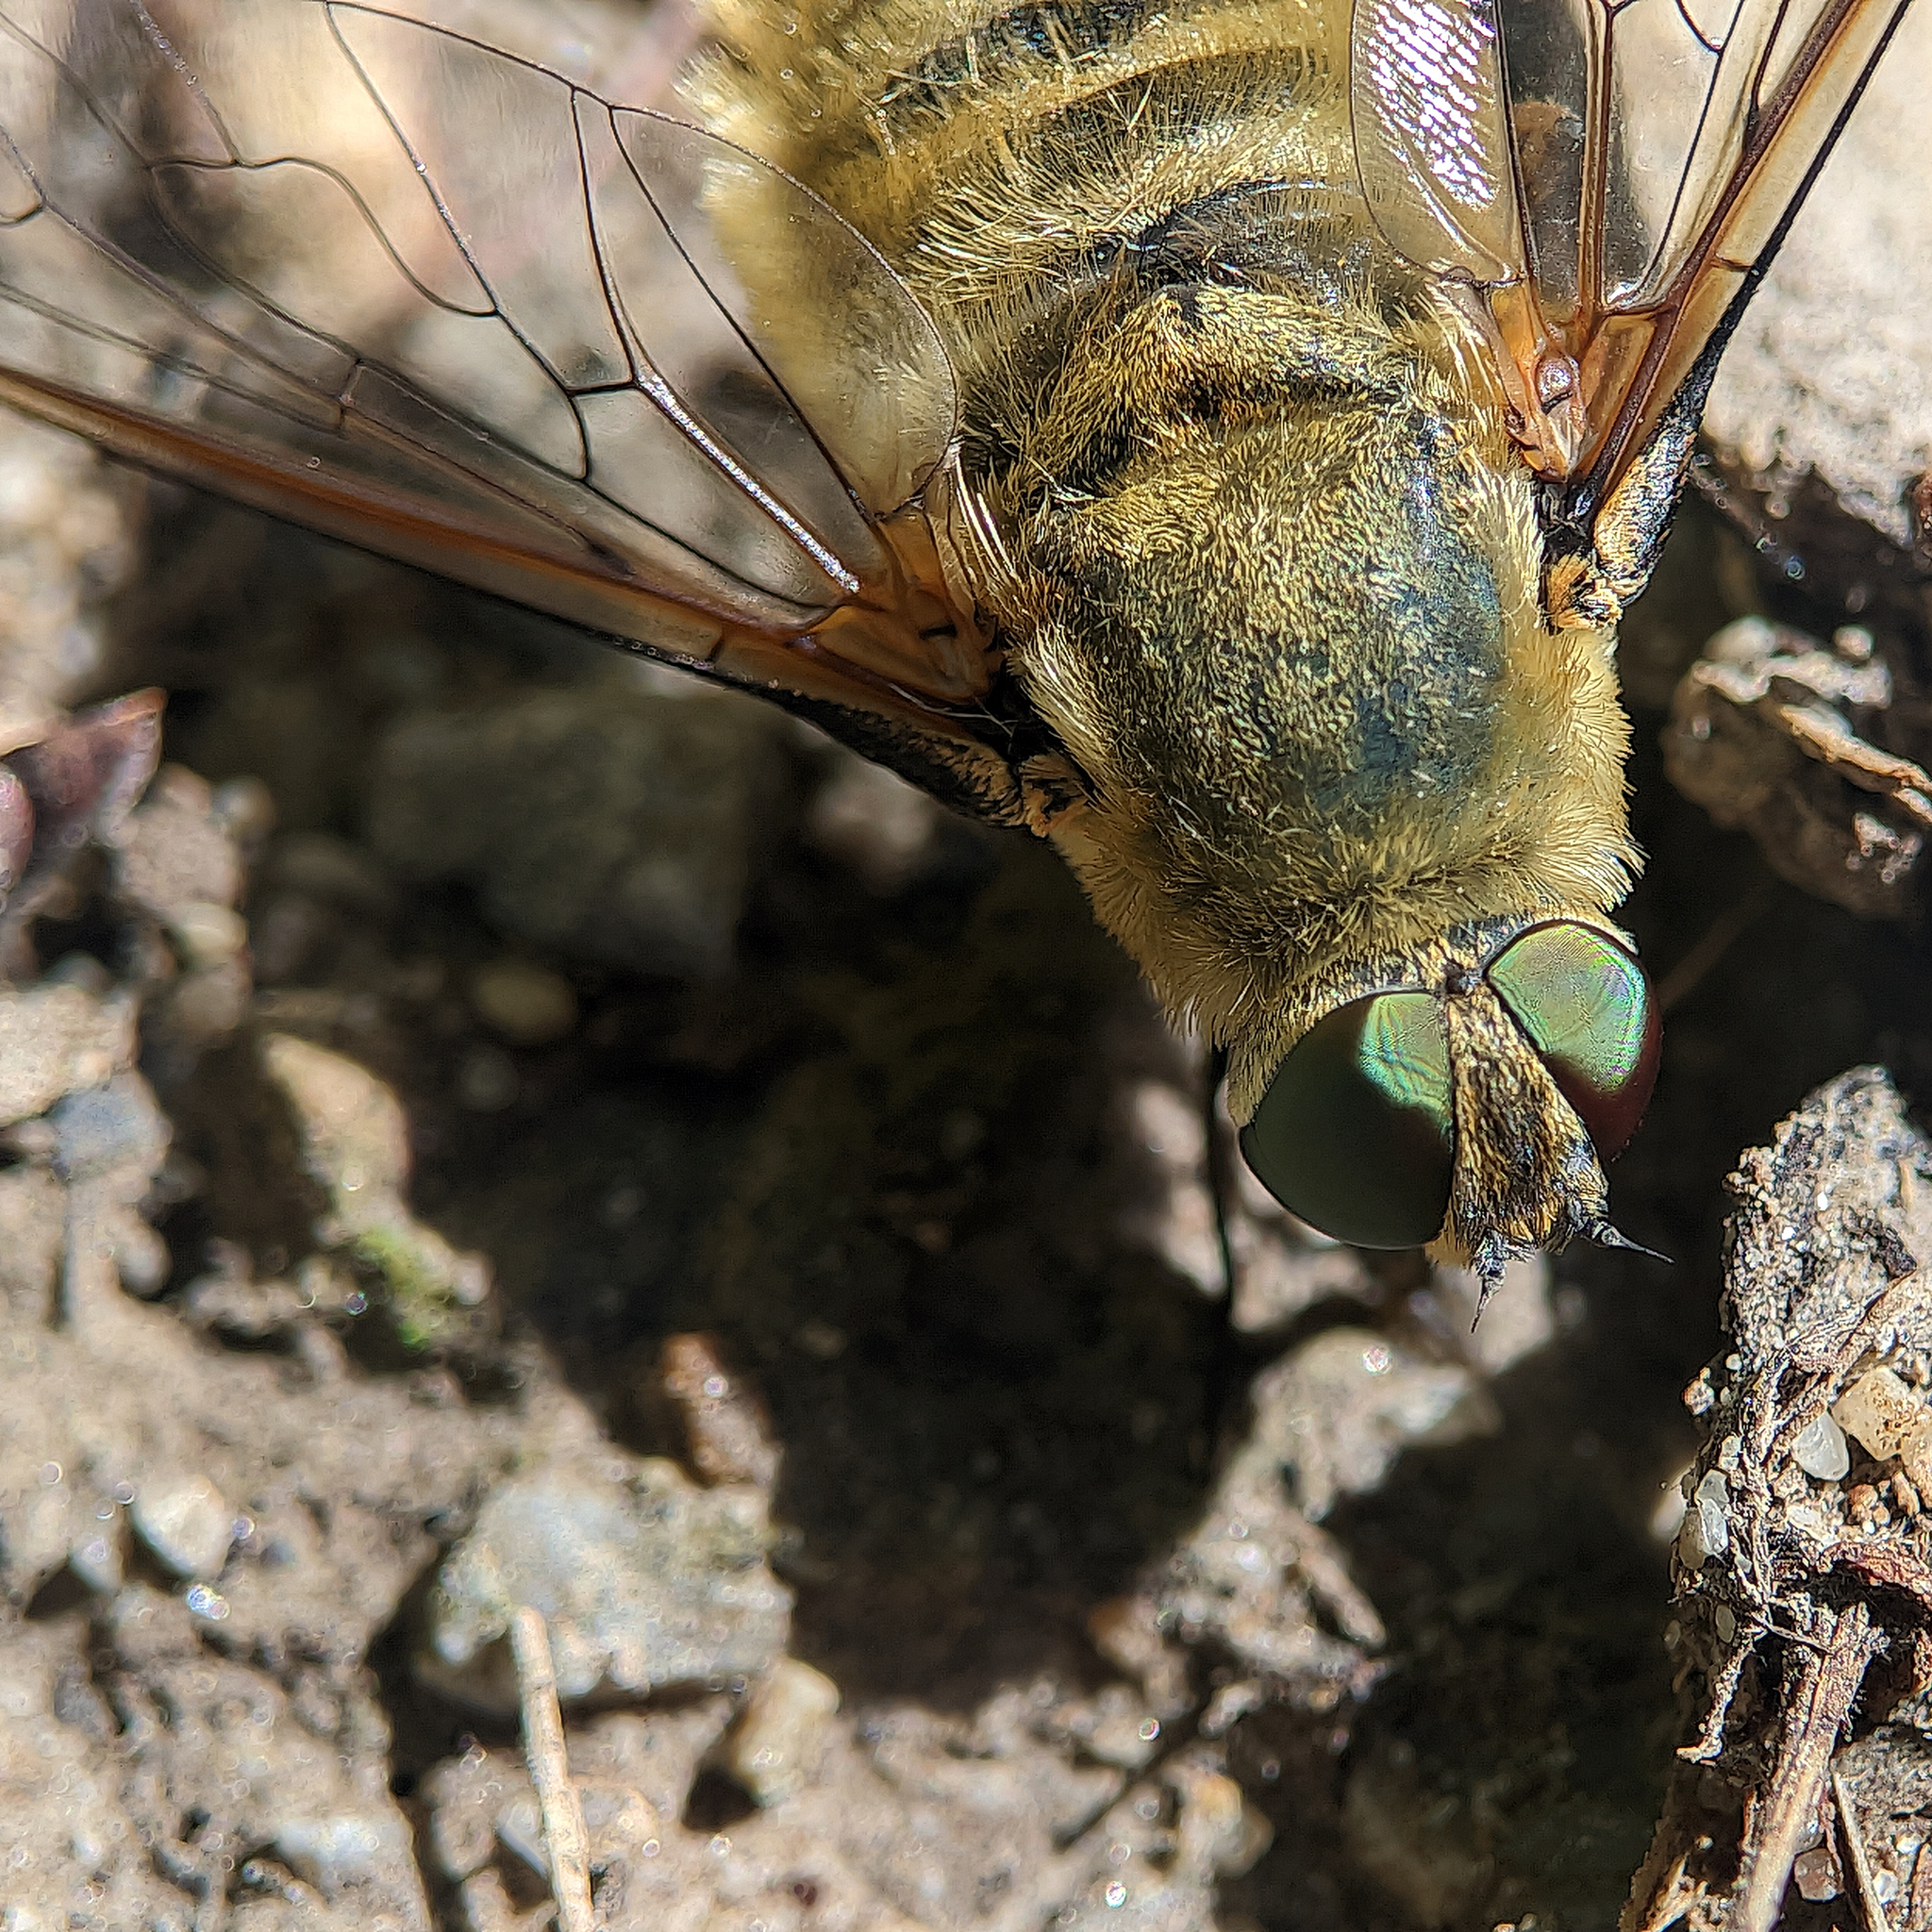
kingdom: Animalia
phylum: Arthropoda
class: Insecta
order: Diptera
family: Bombyliidae
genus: Villa
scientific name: Villa hottentotta
